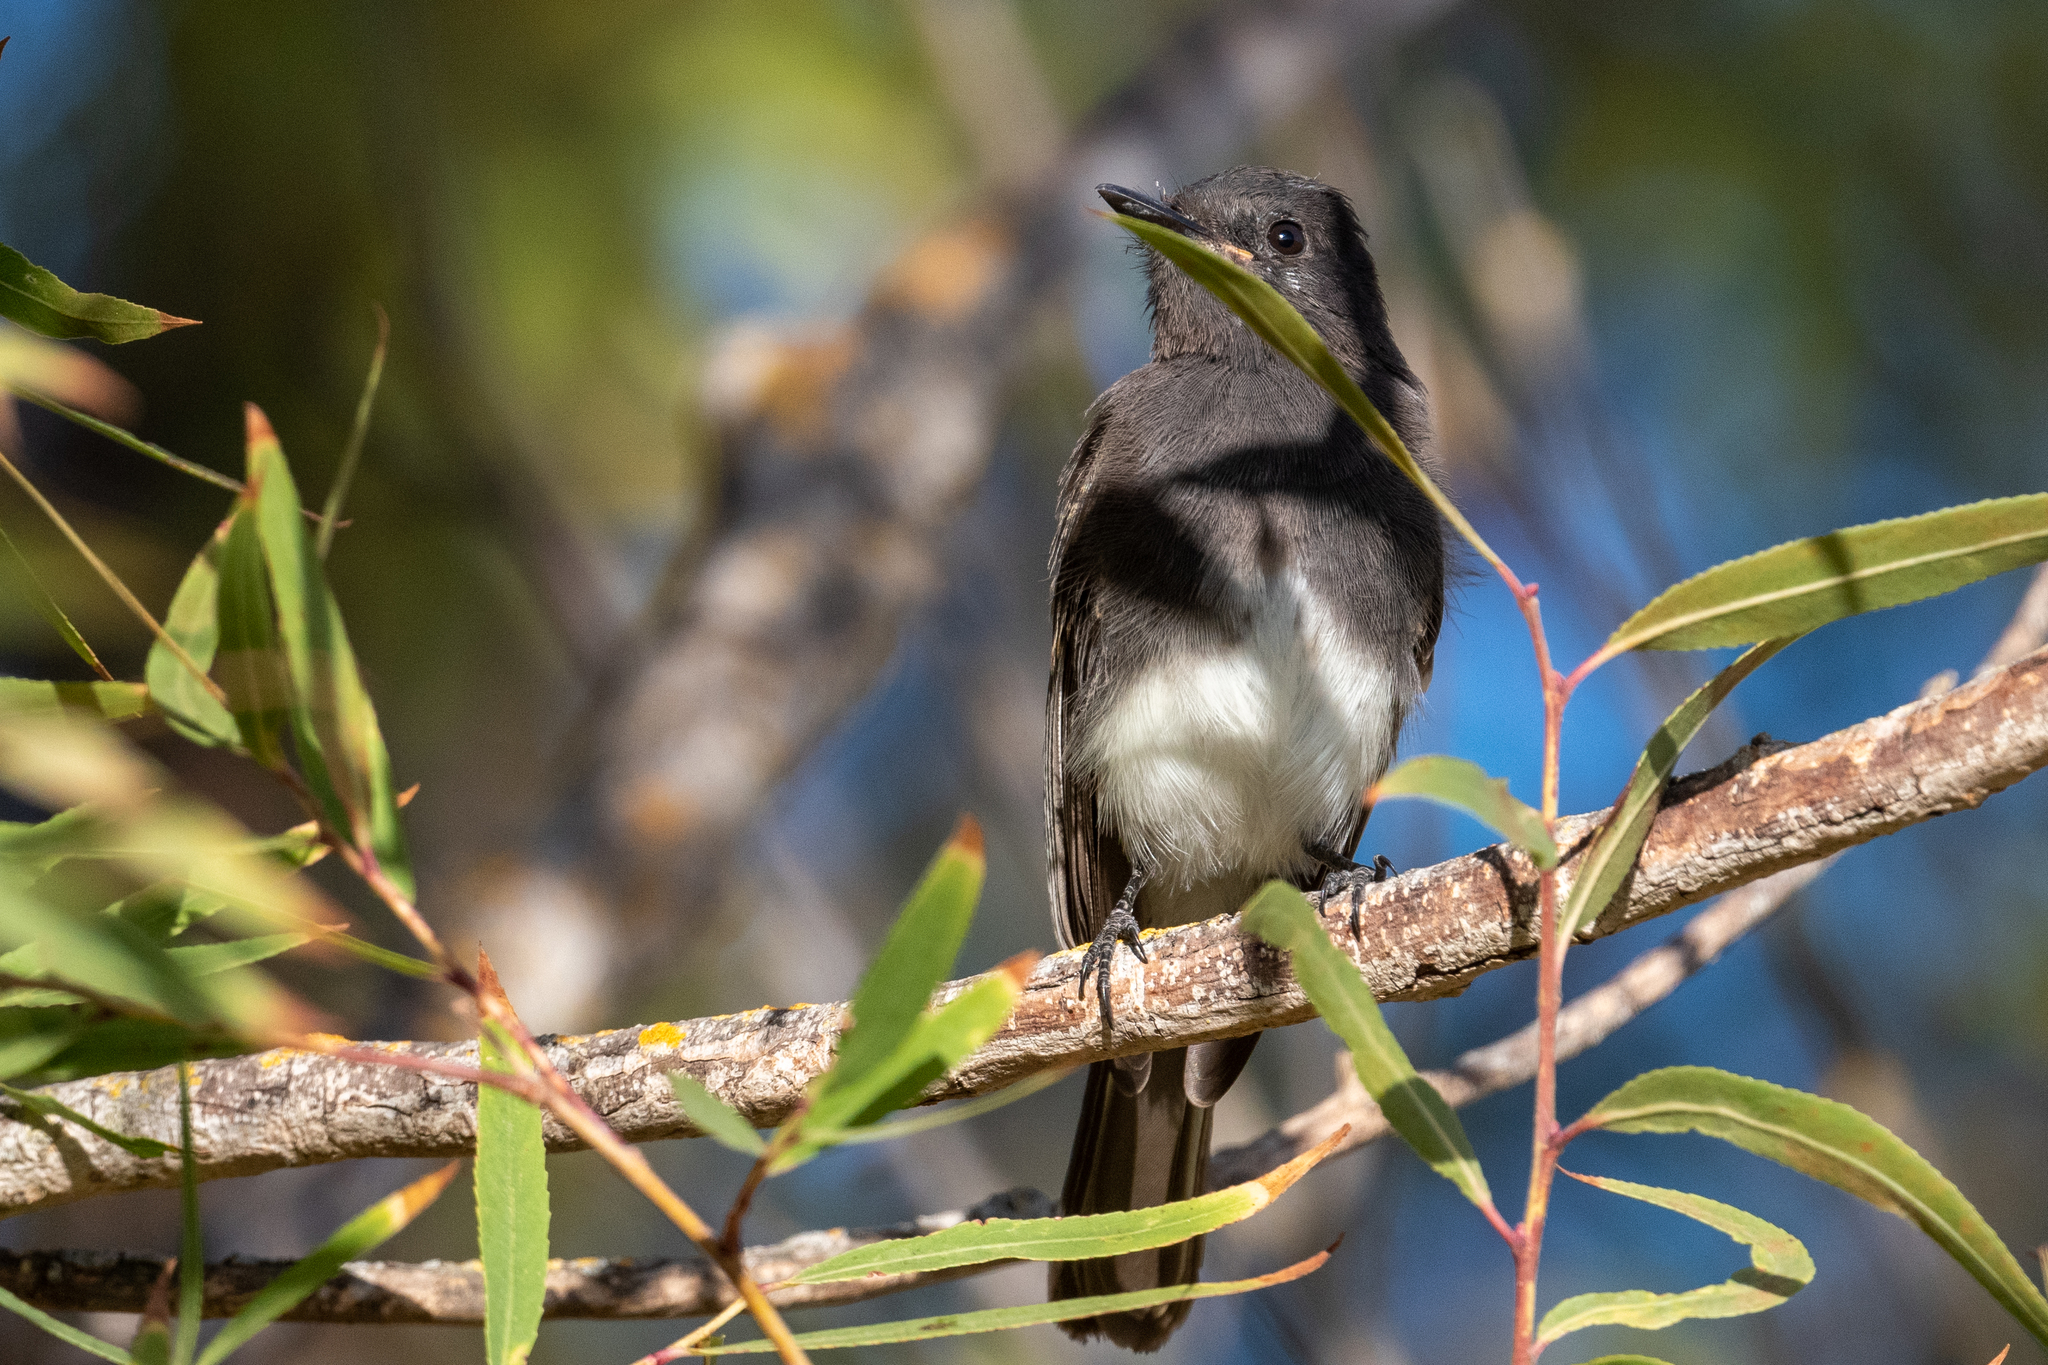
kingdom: Animalia
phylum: Chordata
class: Aves
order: Passeriformes
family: Tyrannidae
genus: Sayornis
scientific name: Sayornis nigricans
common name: Black phoebe
